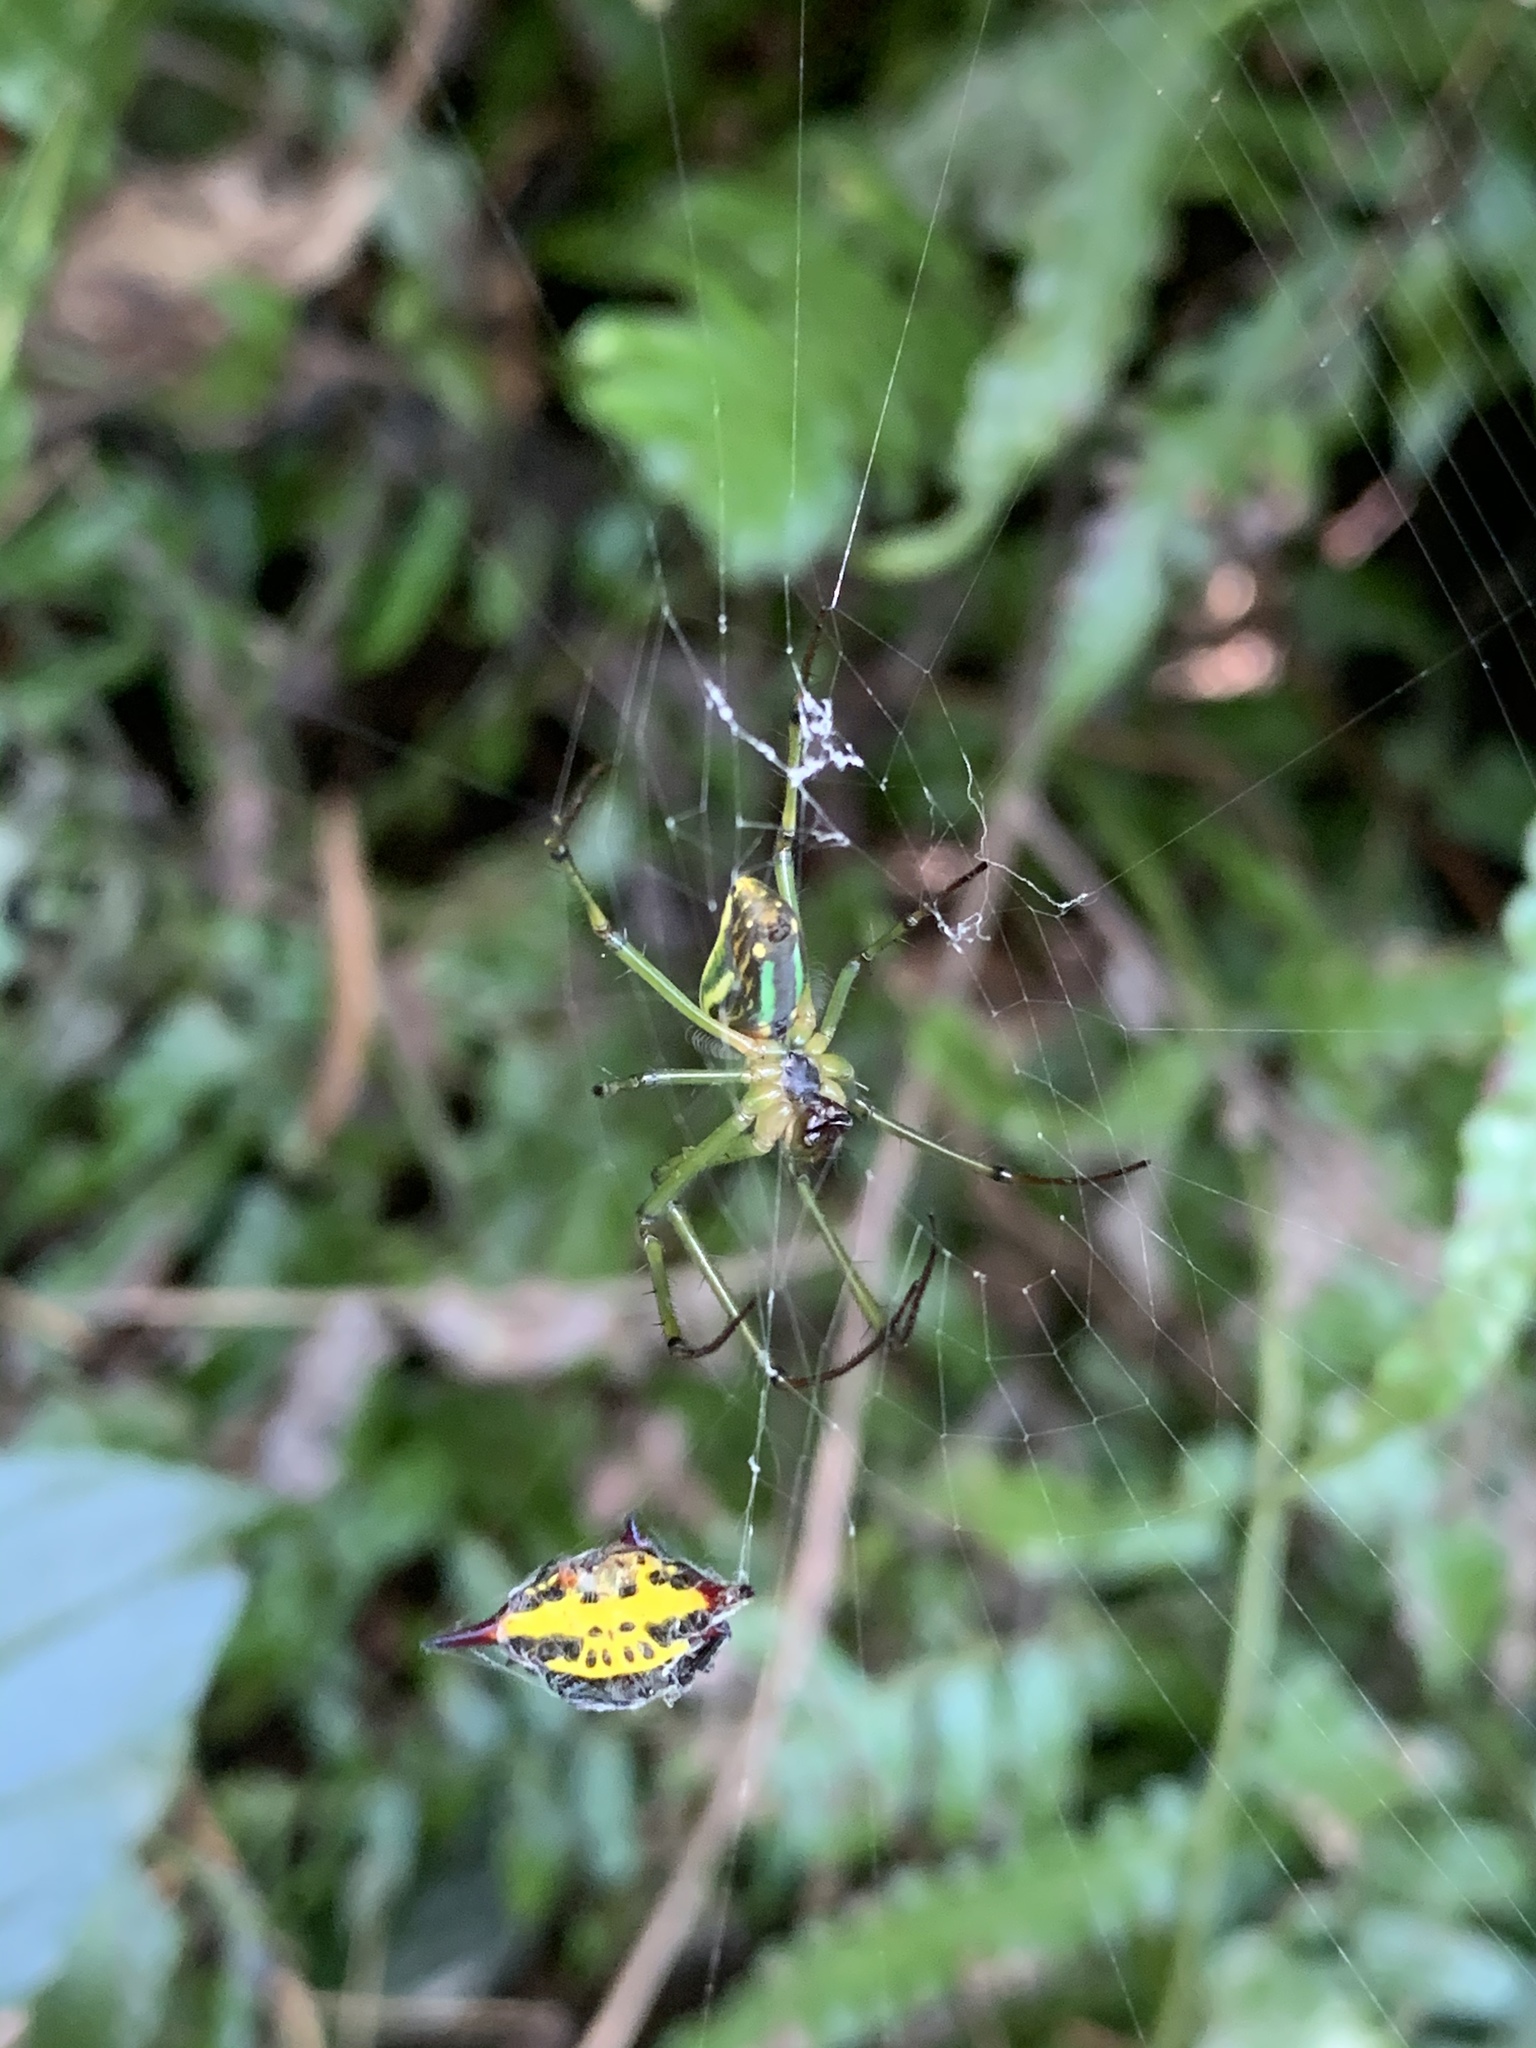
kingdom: Animalia
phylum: Arthropoda
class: Arachnida
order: Araneae
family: Araneidae
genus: Gasteracantha
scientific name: Gasteracantha sauteri
